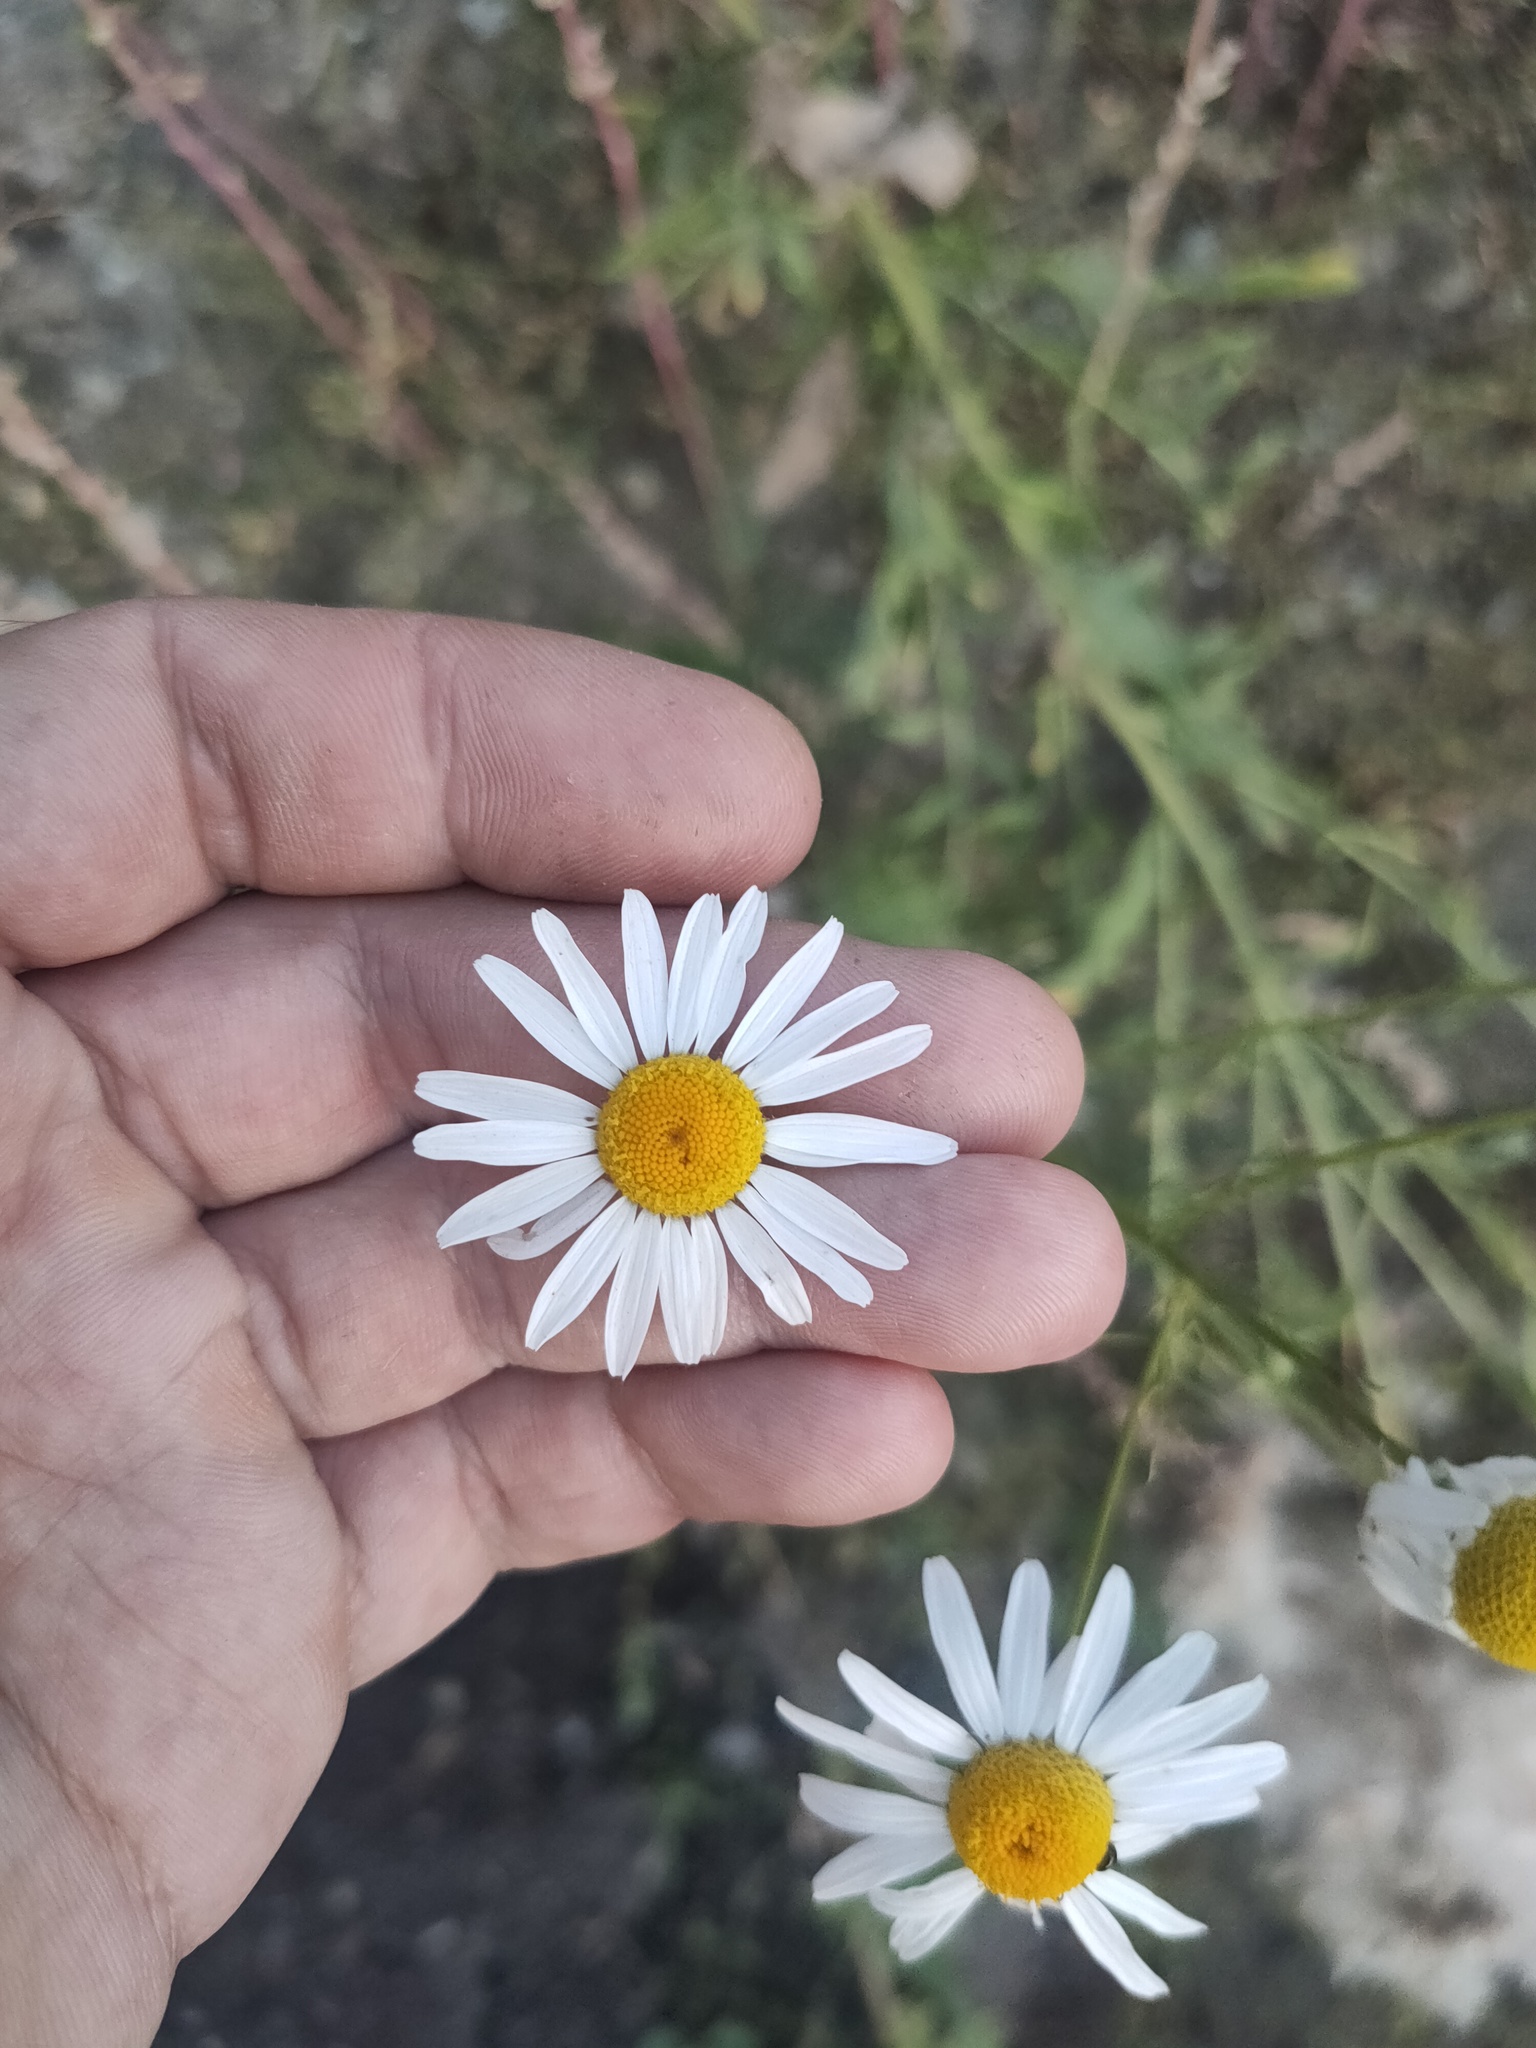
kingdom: Plantae
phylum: Tracheophyta
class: Magnoliopsida
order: Asterales
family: Asteraceae
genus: Tripleurospermum
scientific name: Tripleurospermum inodorum
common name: Scentless mayweed
